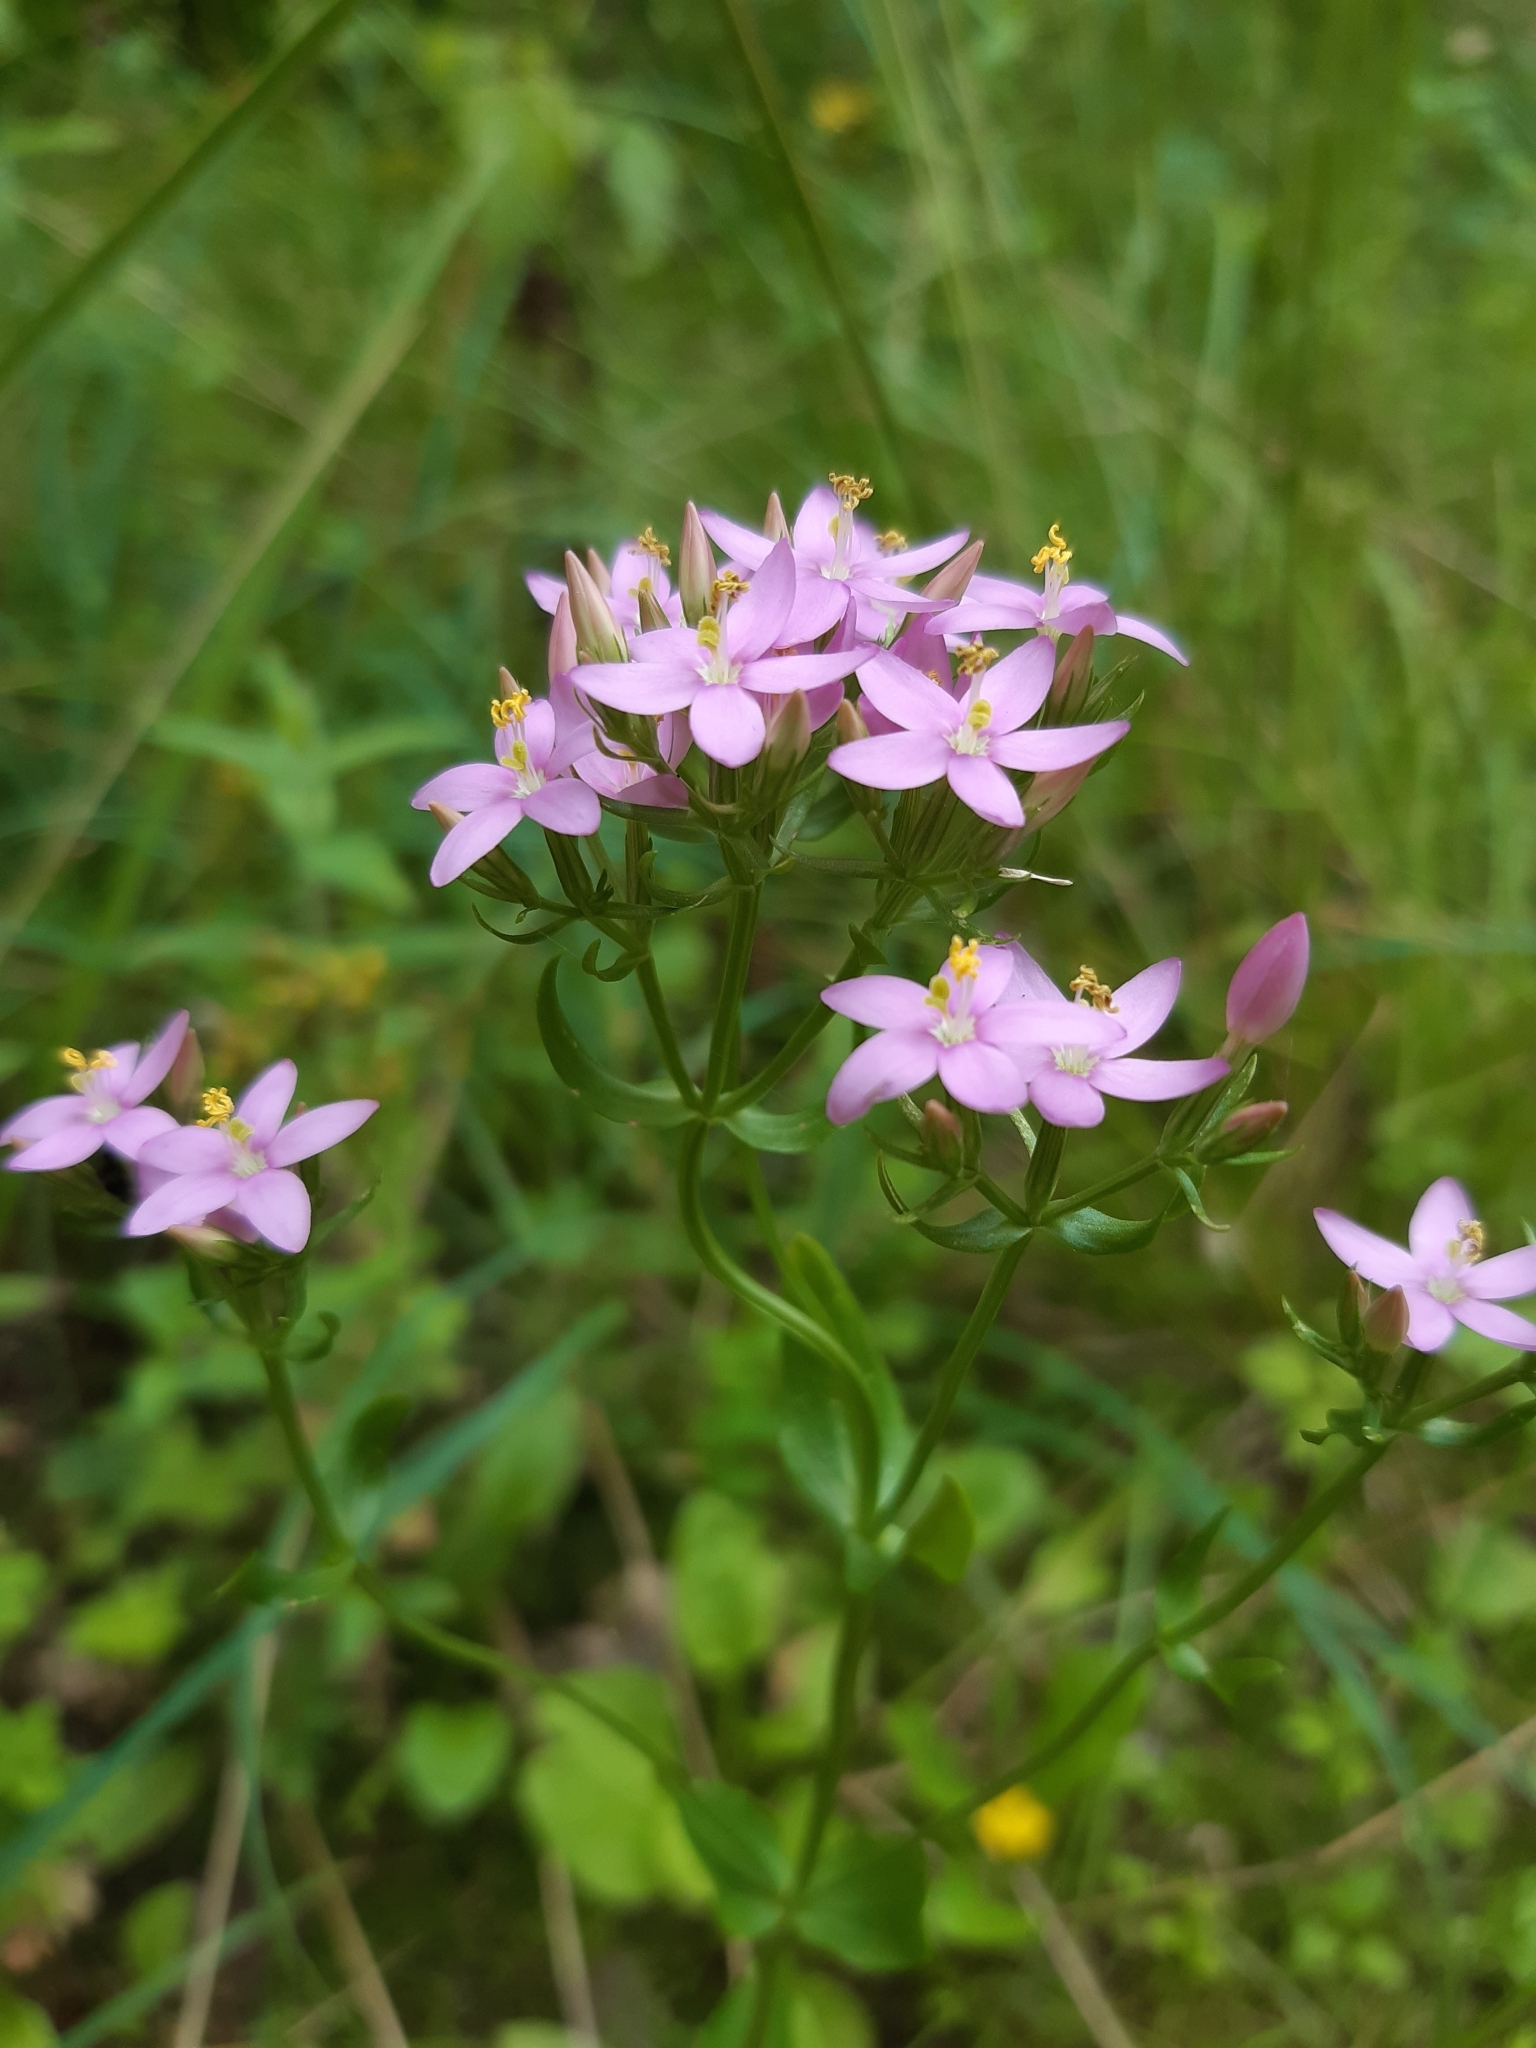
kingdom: Plantae
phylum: Tracheophyta
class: Magnoliopsida
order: Gentianales
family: Gentianaceae
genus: Centaurium
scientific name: Centaurium erythraea
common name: Common centaury
